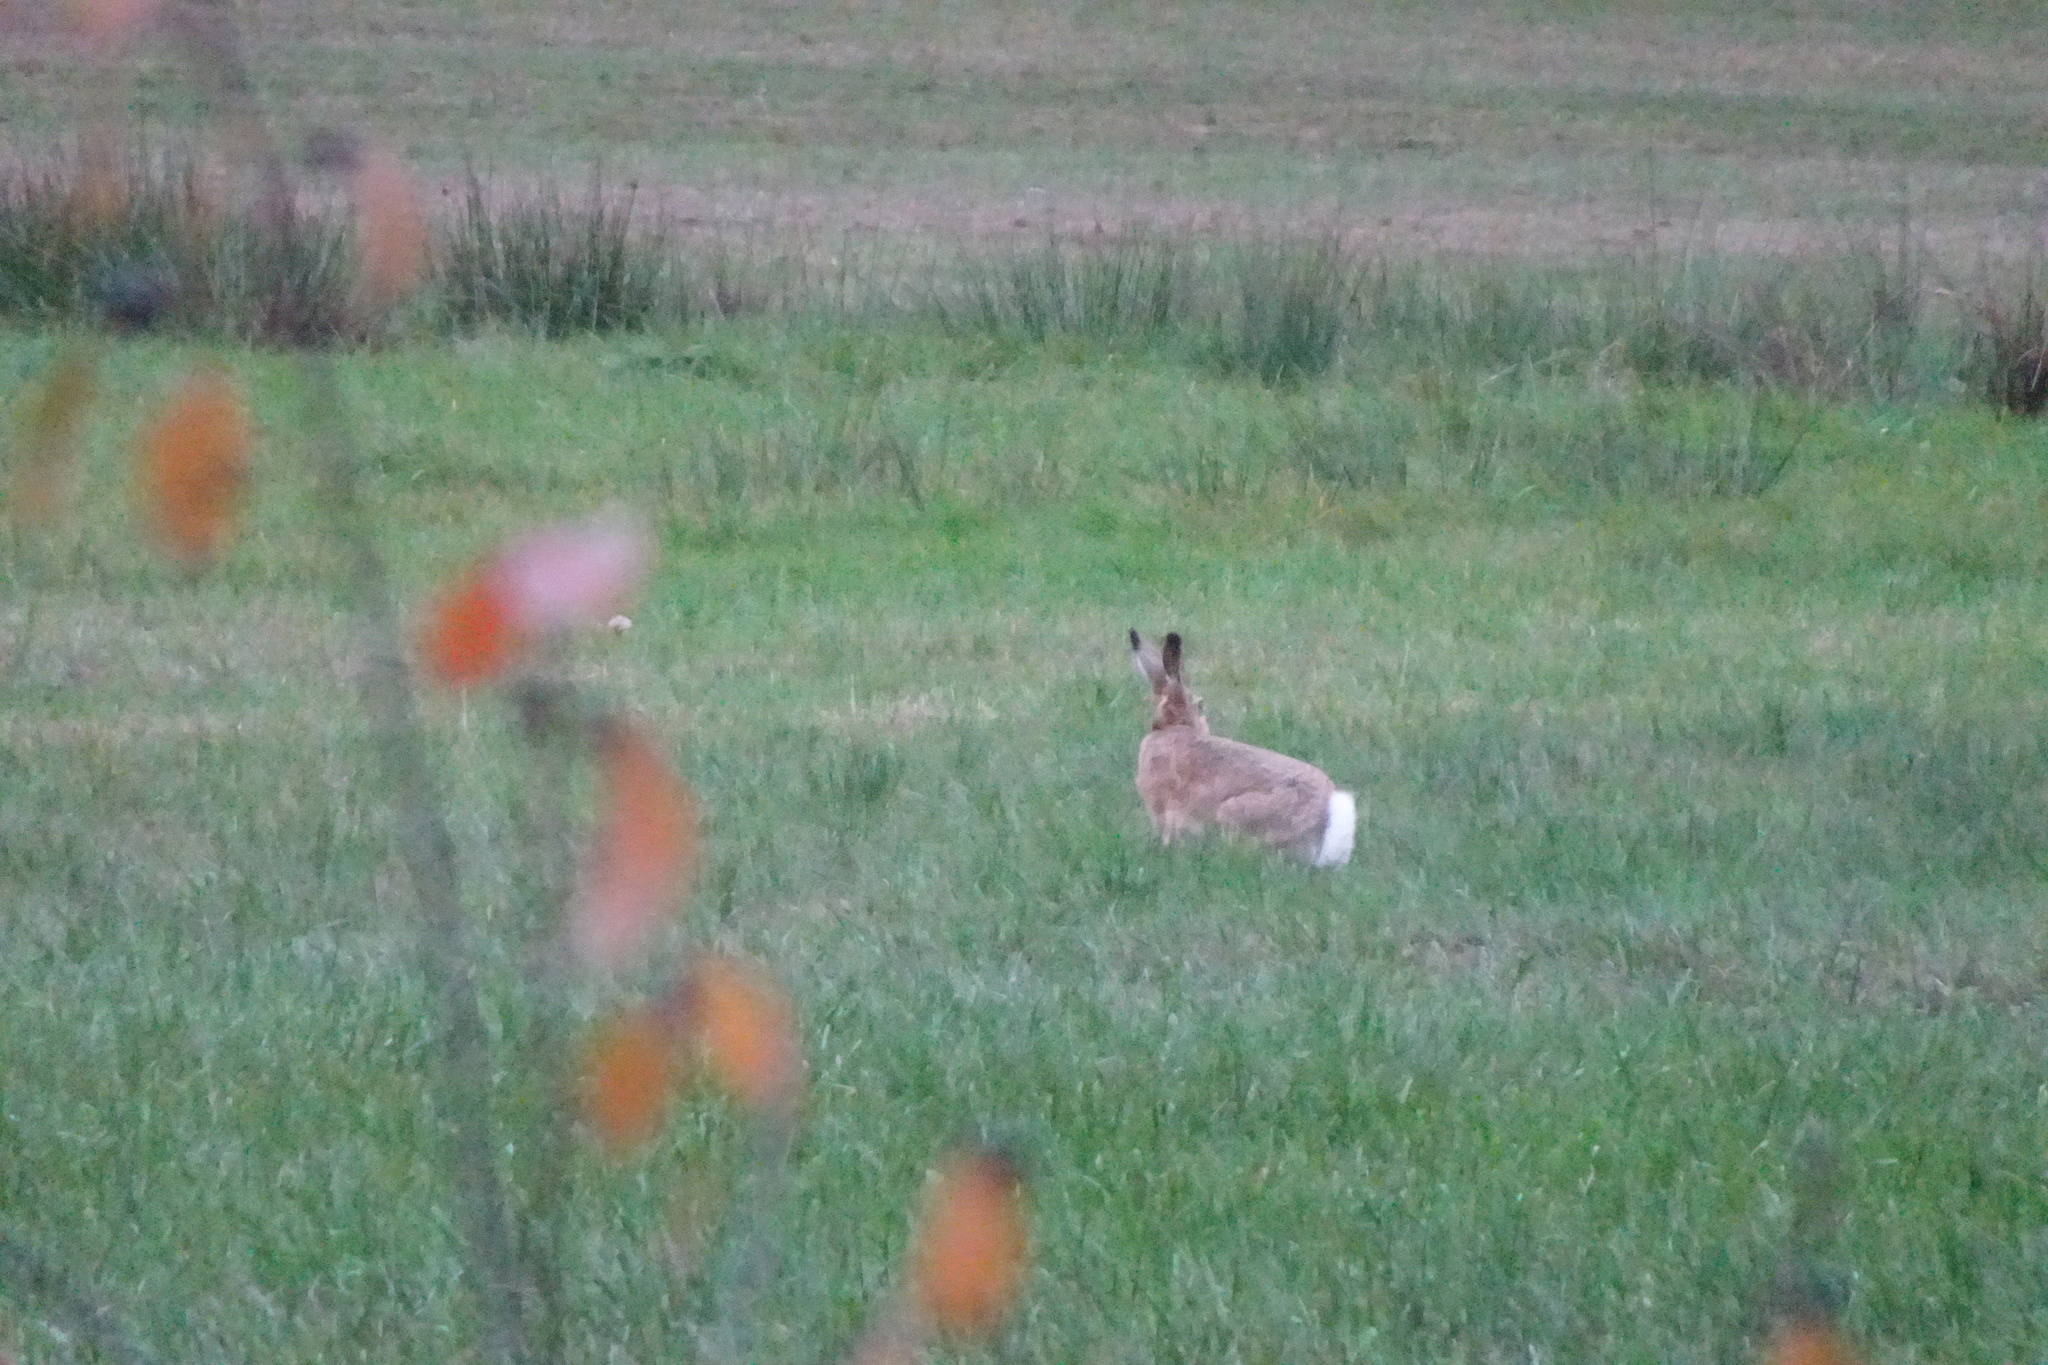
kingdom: Animalia
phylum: Chordata
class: Mammalia
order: Lagomorpha
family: Leporidae
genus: Lepus
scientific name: Lepus europaeus
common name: European hare
